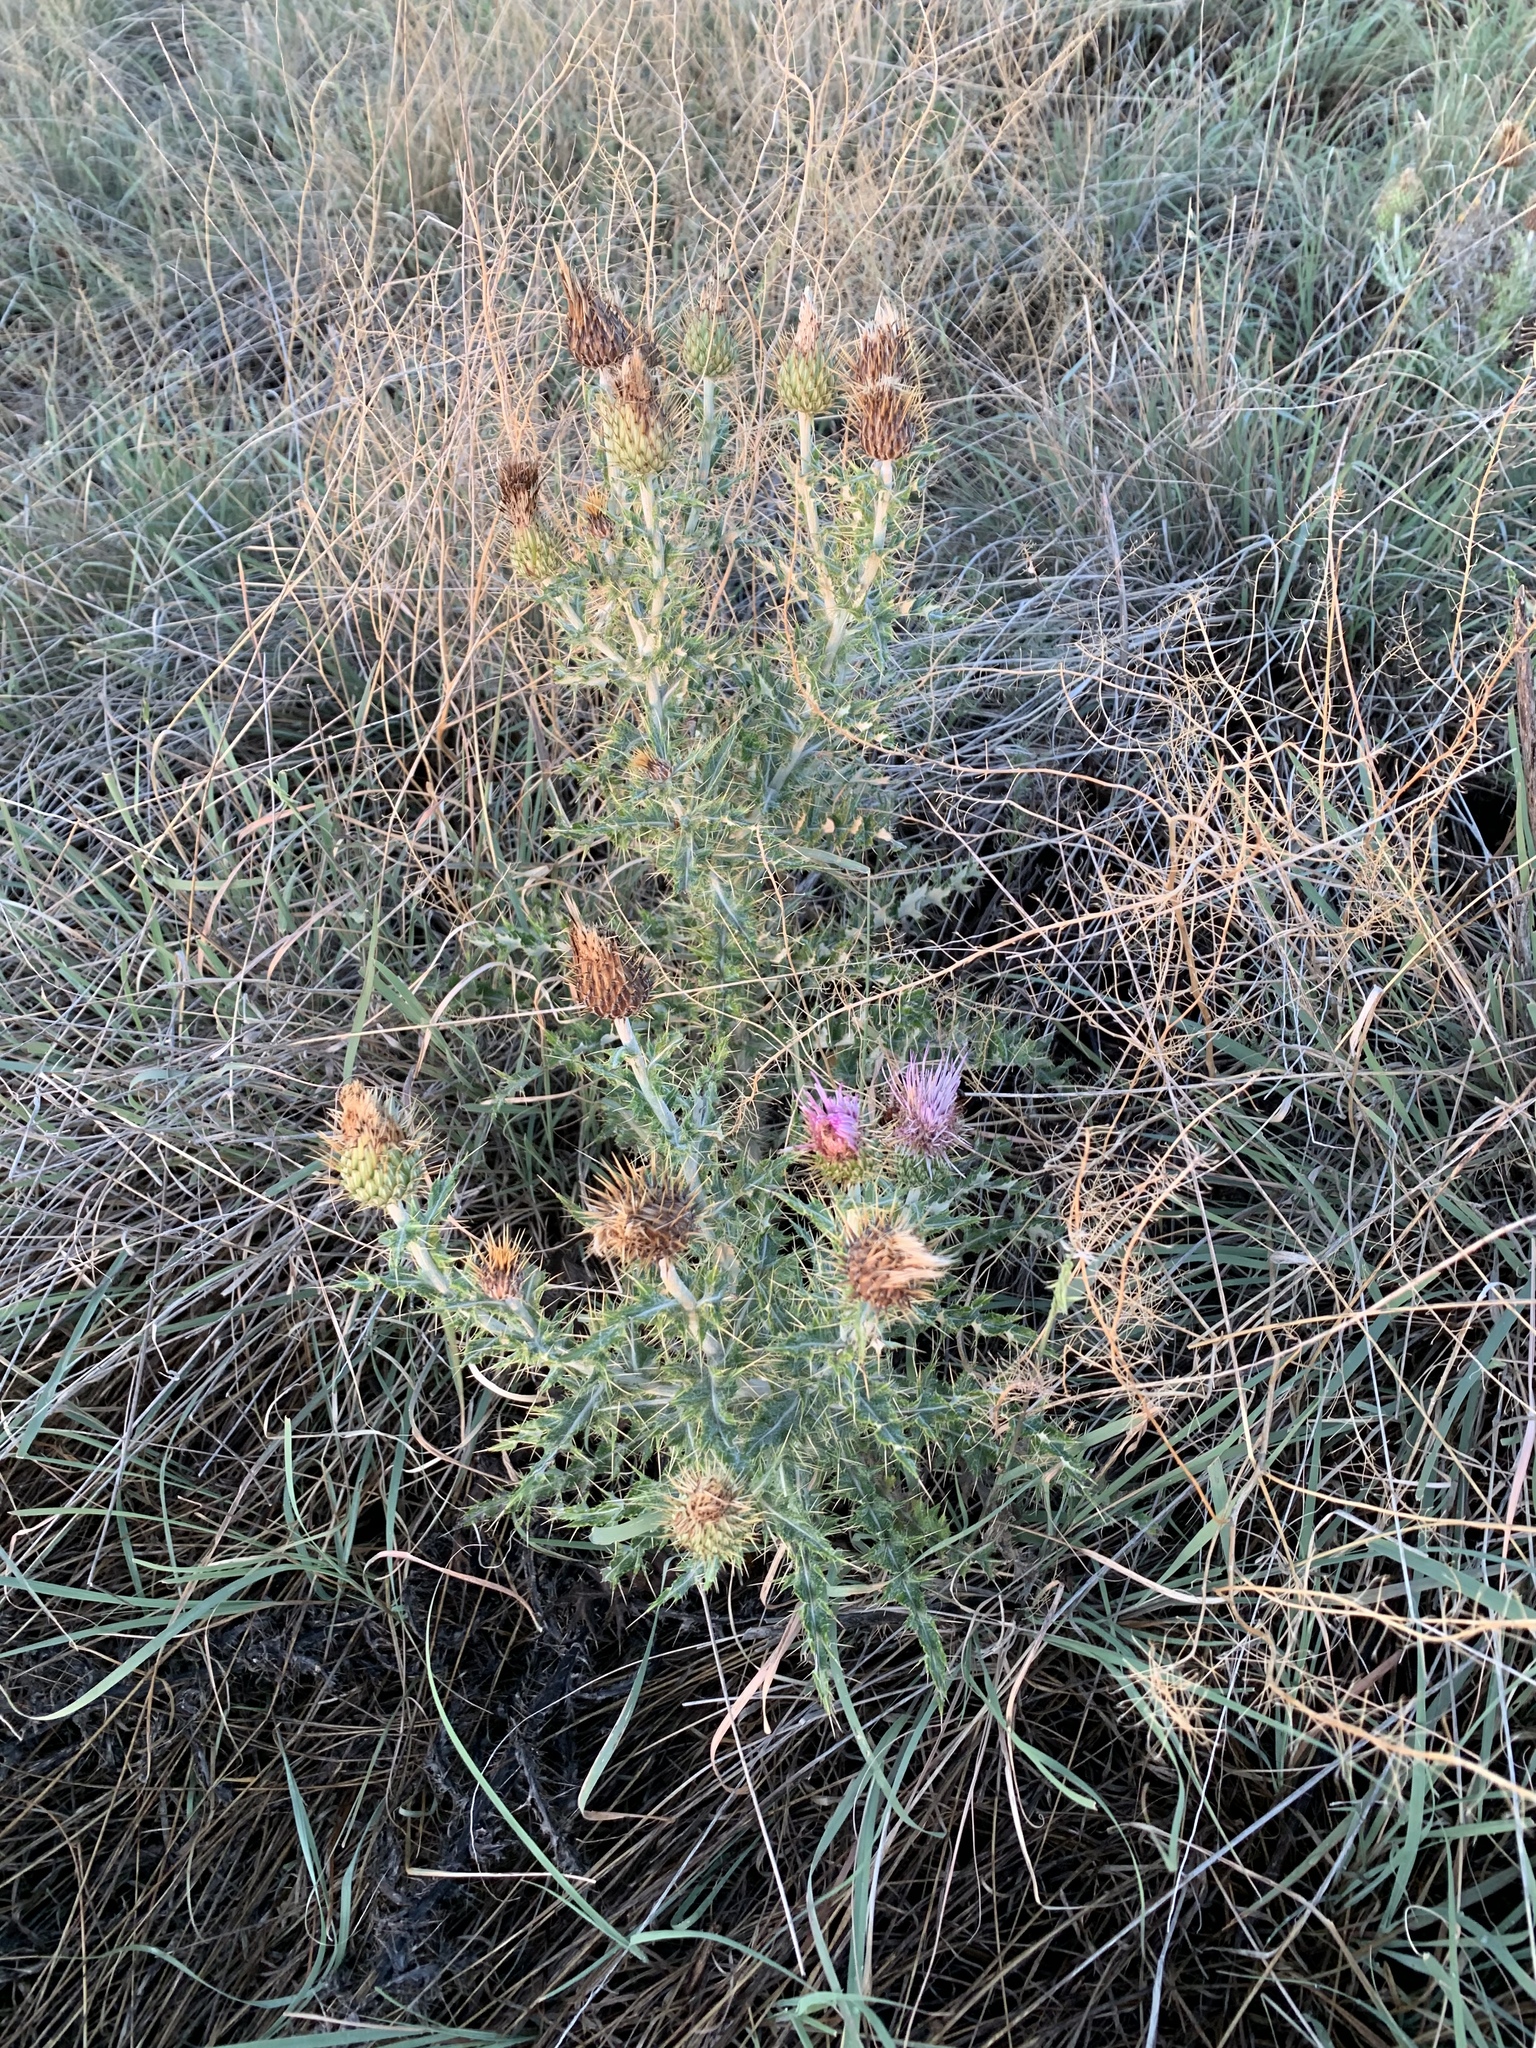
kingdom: Plantae
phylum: Tracheophyta
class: Magnoliopsida
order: Asterales
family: Asteraceae
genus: Cirsium
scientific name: Cirsium ochrocentrum
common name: Yellow-spine thistle
